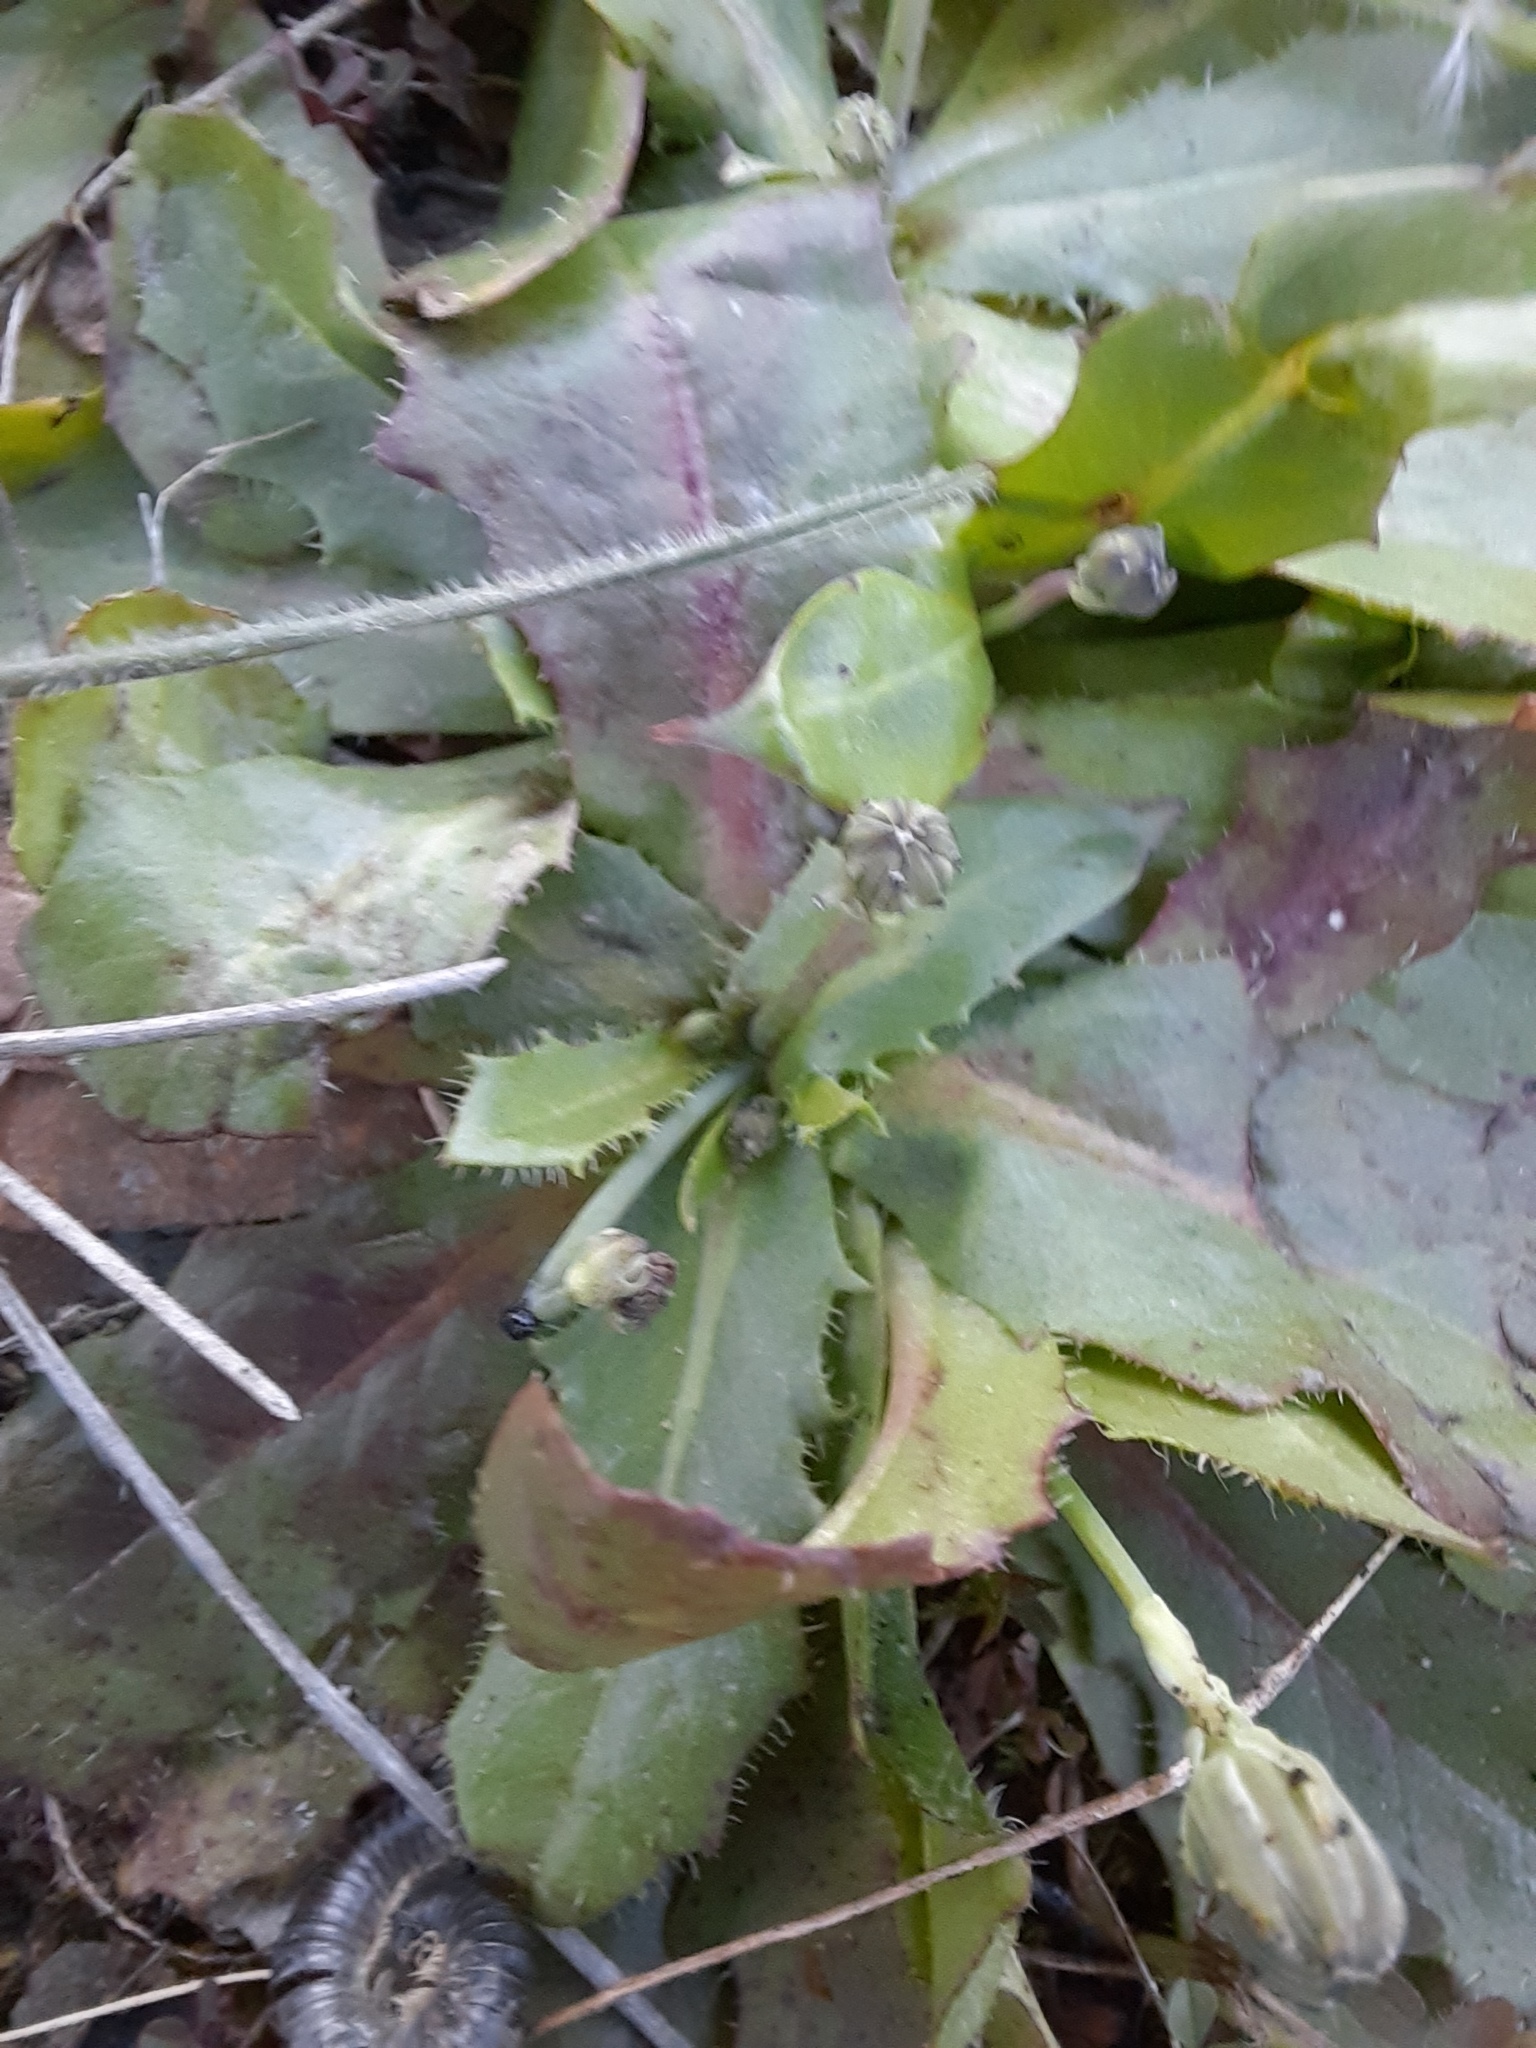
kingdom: Plantae
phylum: Tracheophyta
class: Magnoliopsida
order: Asterales
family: Asteraceae
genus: Hypochaeris
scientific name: Hypochaeris glabra
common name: Smooth catsear
